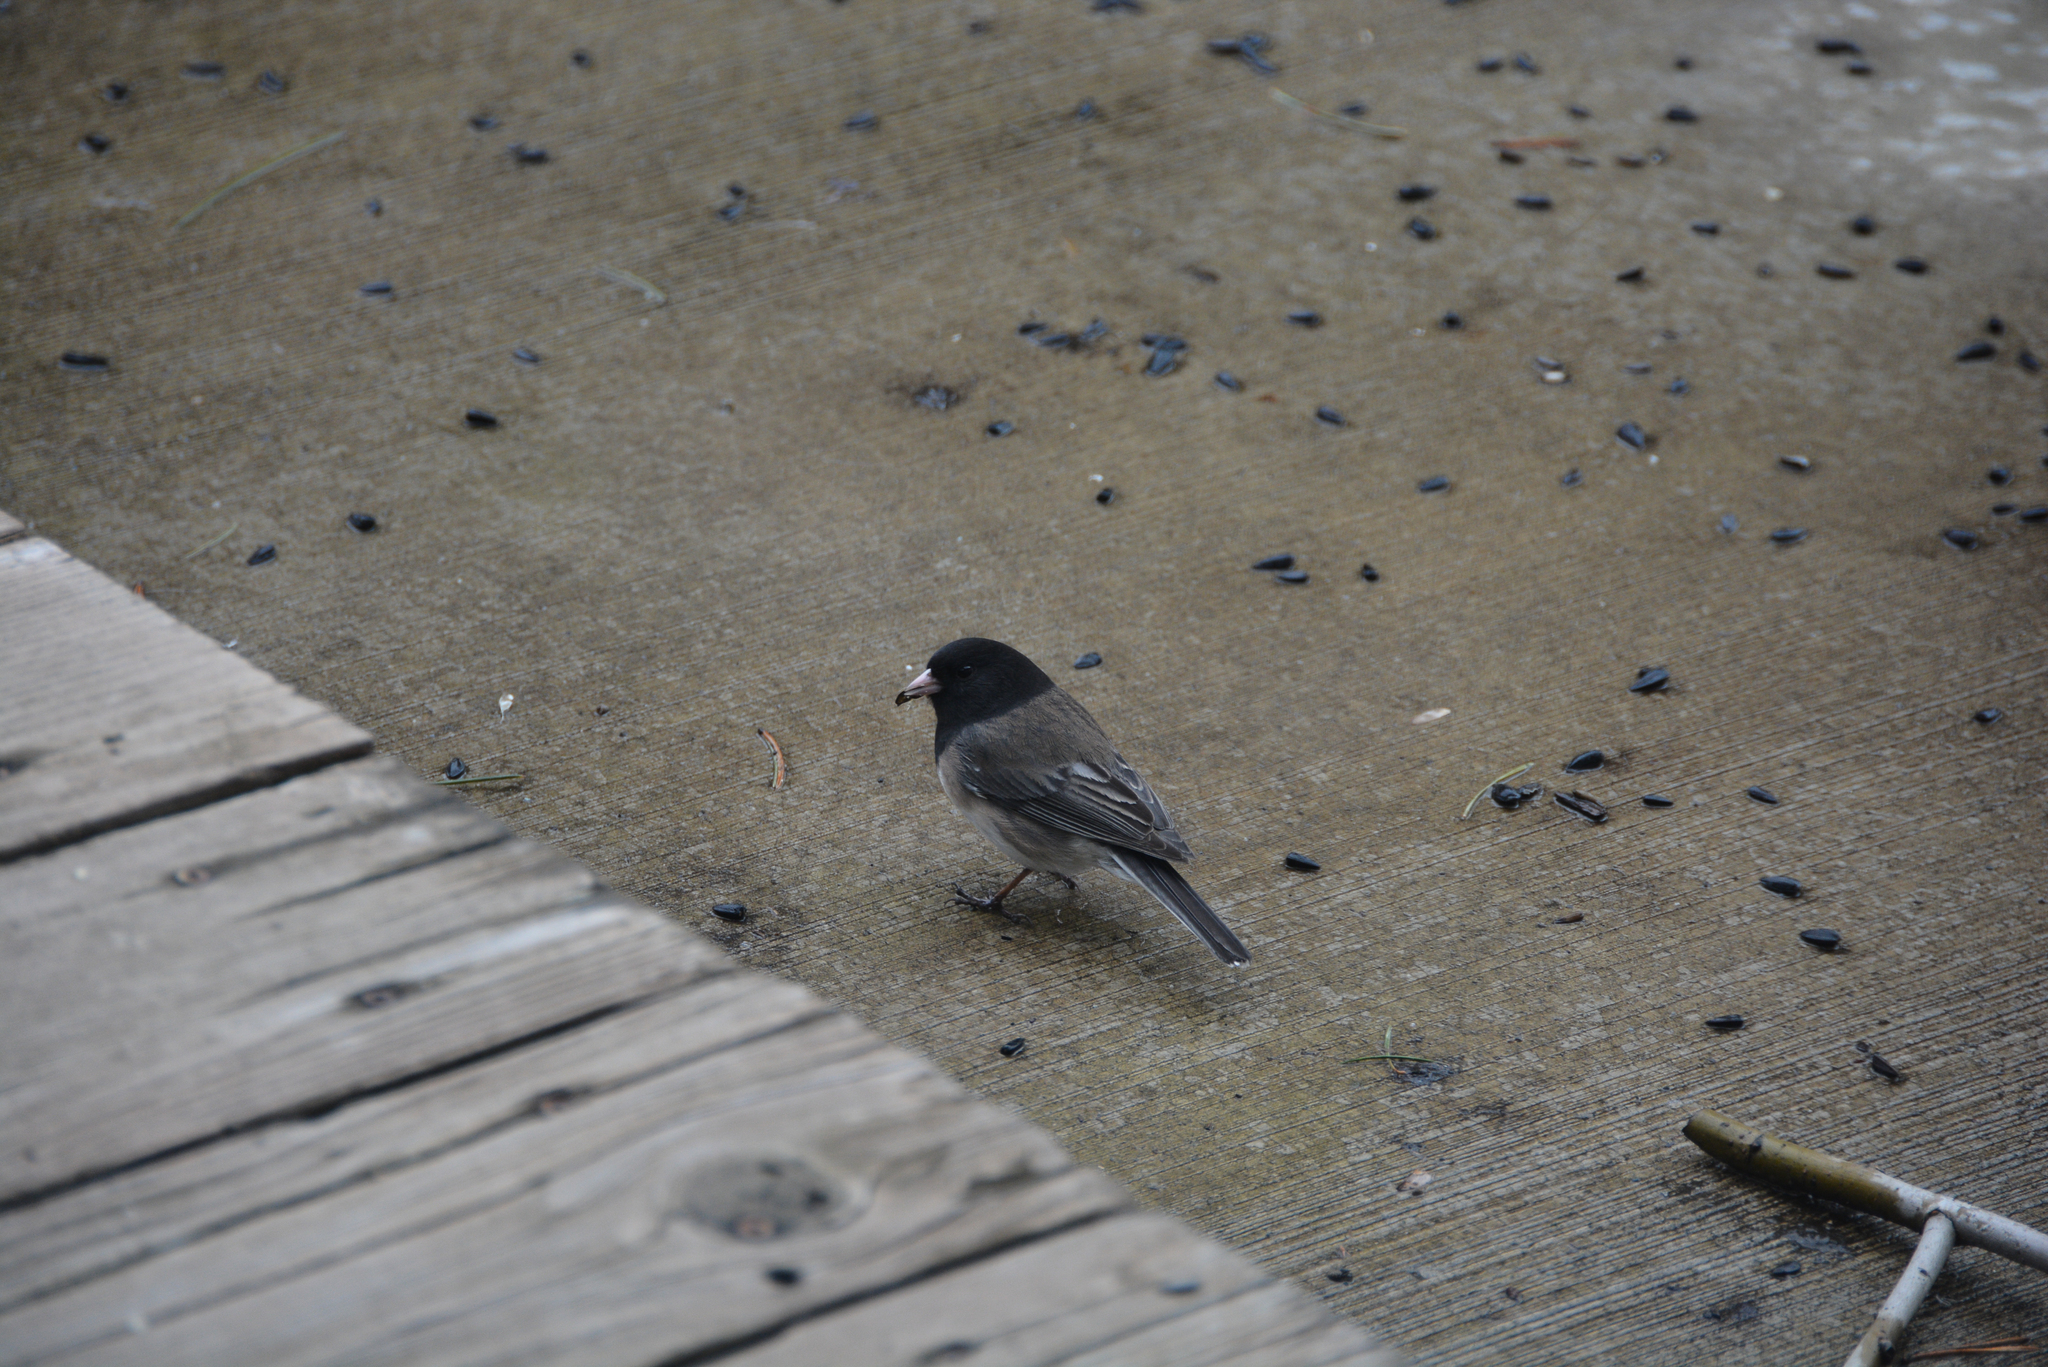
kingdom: Animalia
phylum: Chordata
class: Aves
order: Passeriformes
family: Passerellidae
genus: Junco
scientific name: Junco hyemalis
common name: Dark-eyed junco
